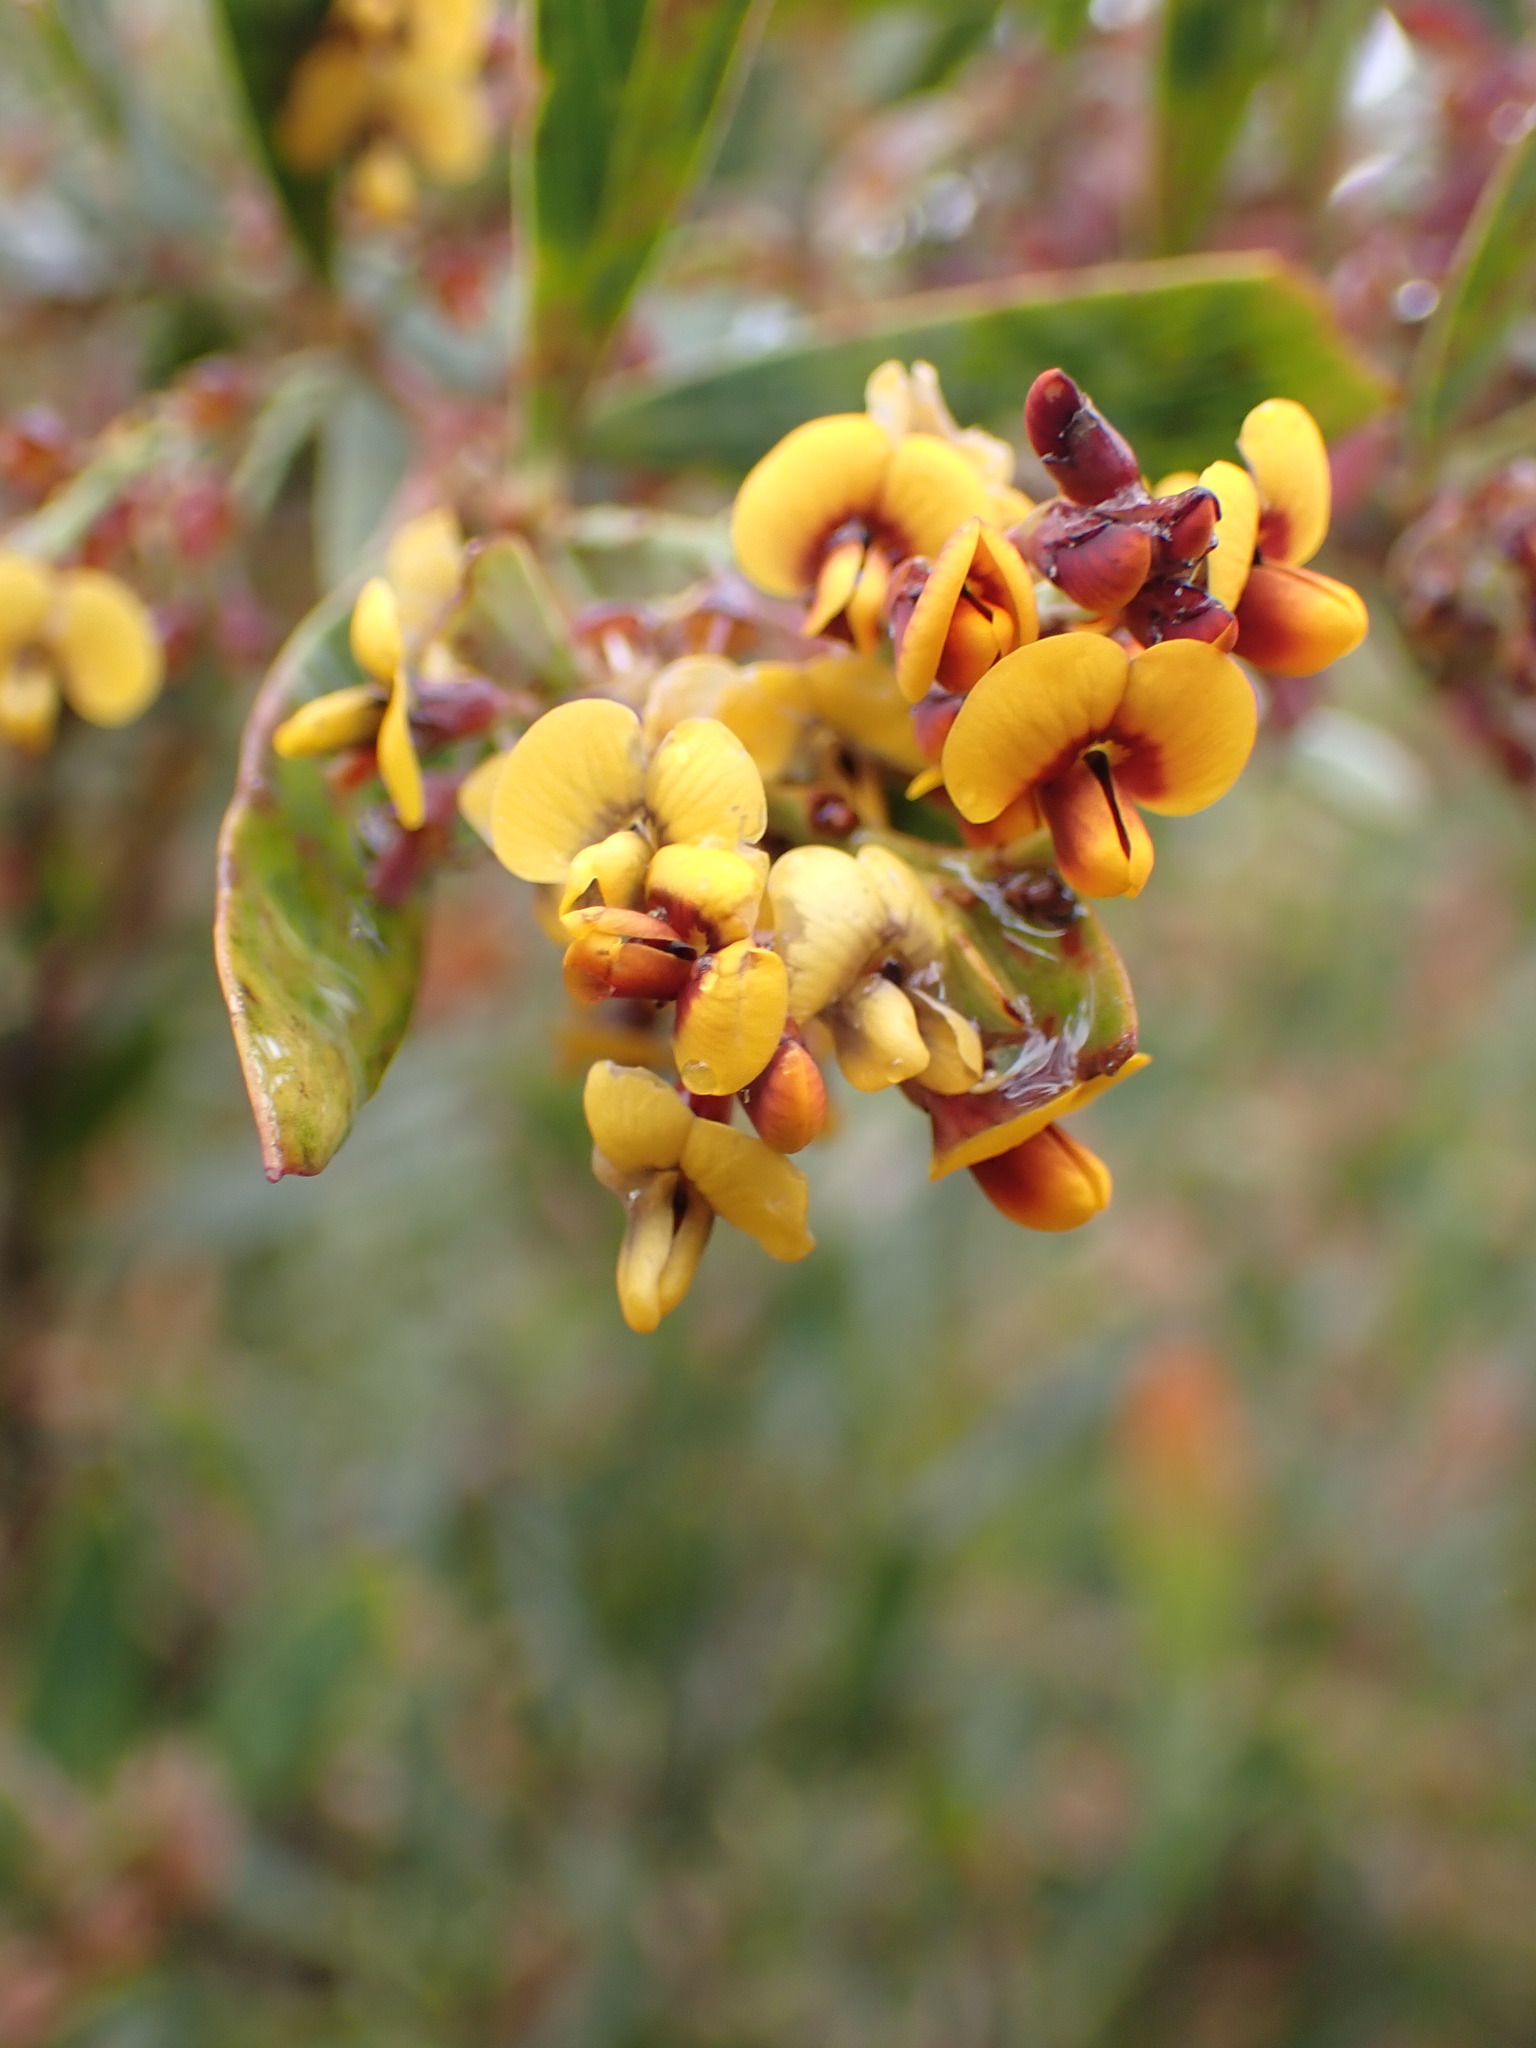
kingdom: Plantae
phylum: Tracheophyta
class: Magnoliopsida
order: Fabales
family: Fabaceae
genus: Daviesia
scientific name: Daviesia mimosoides
